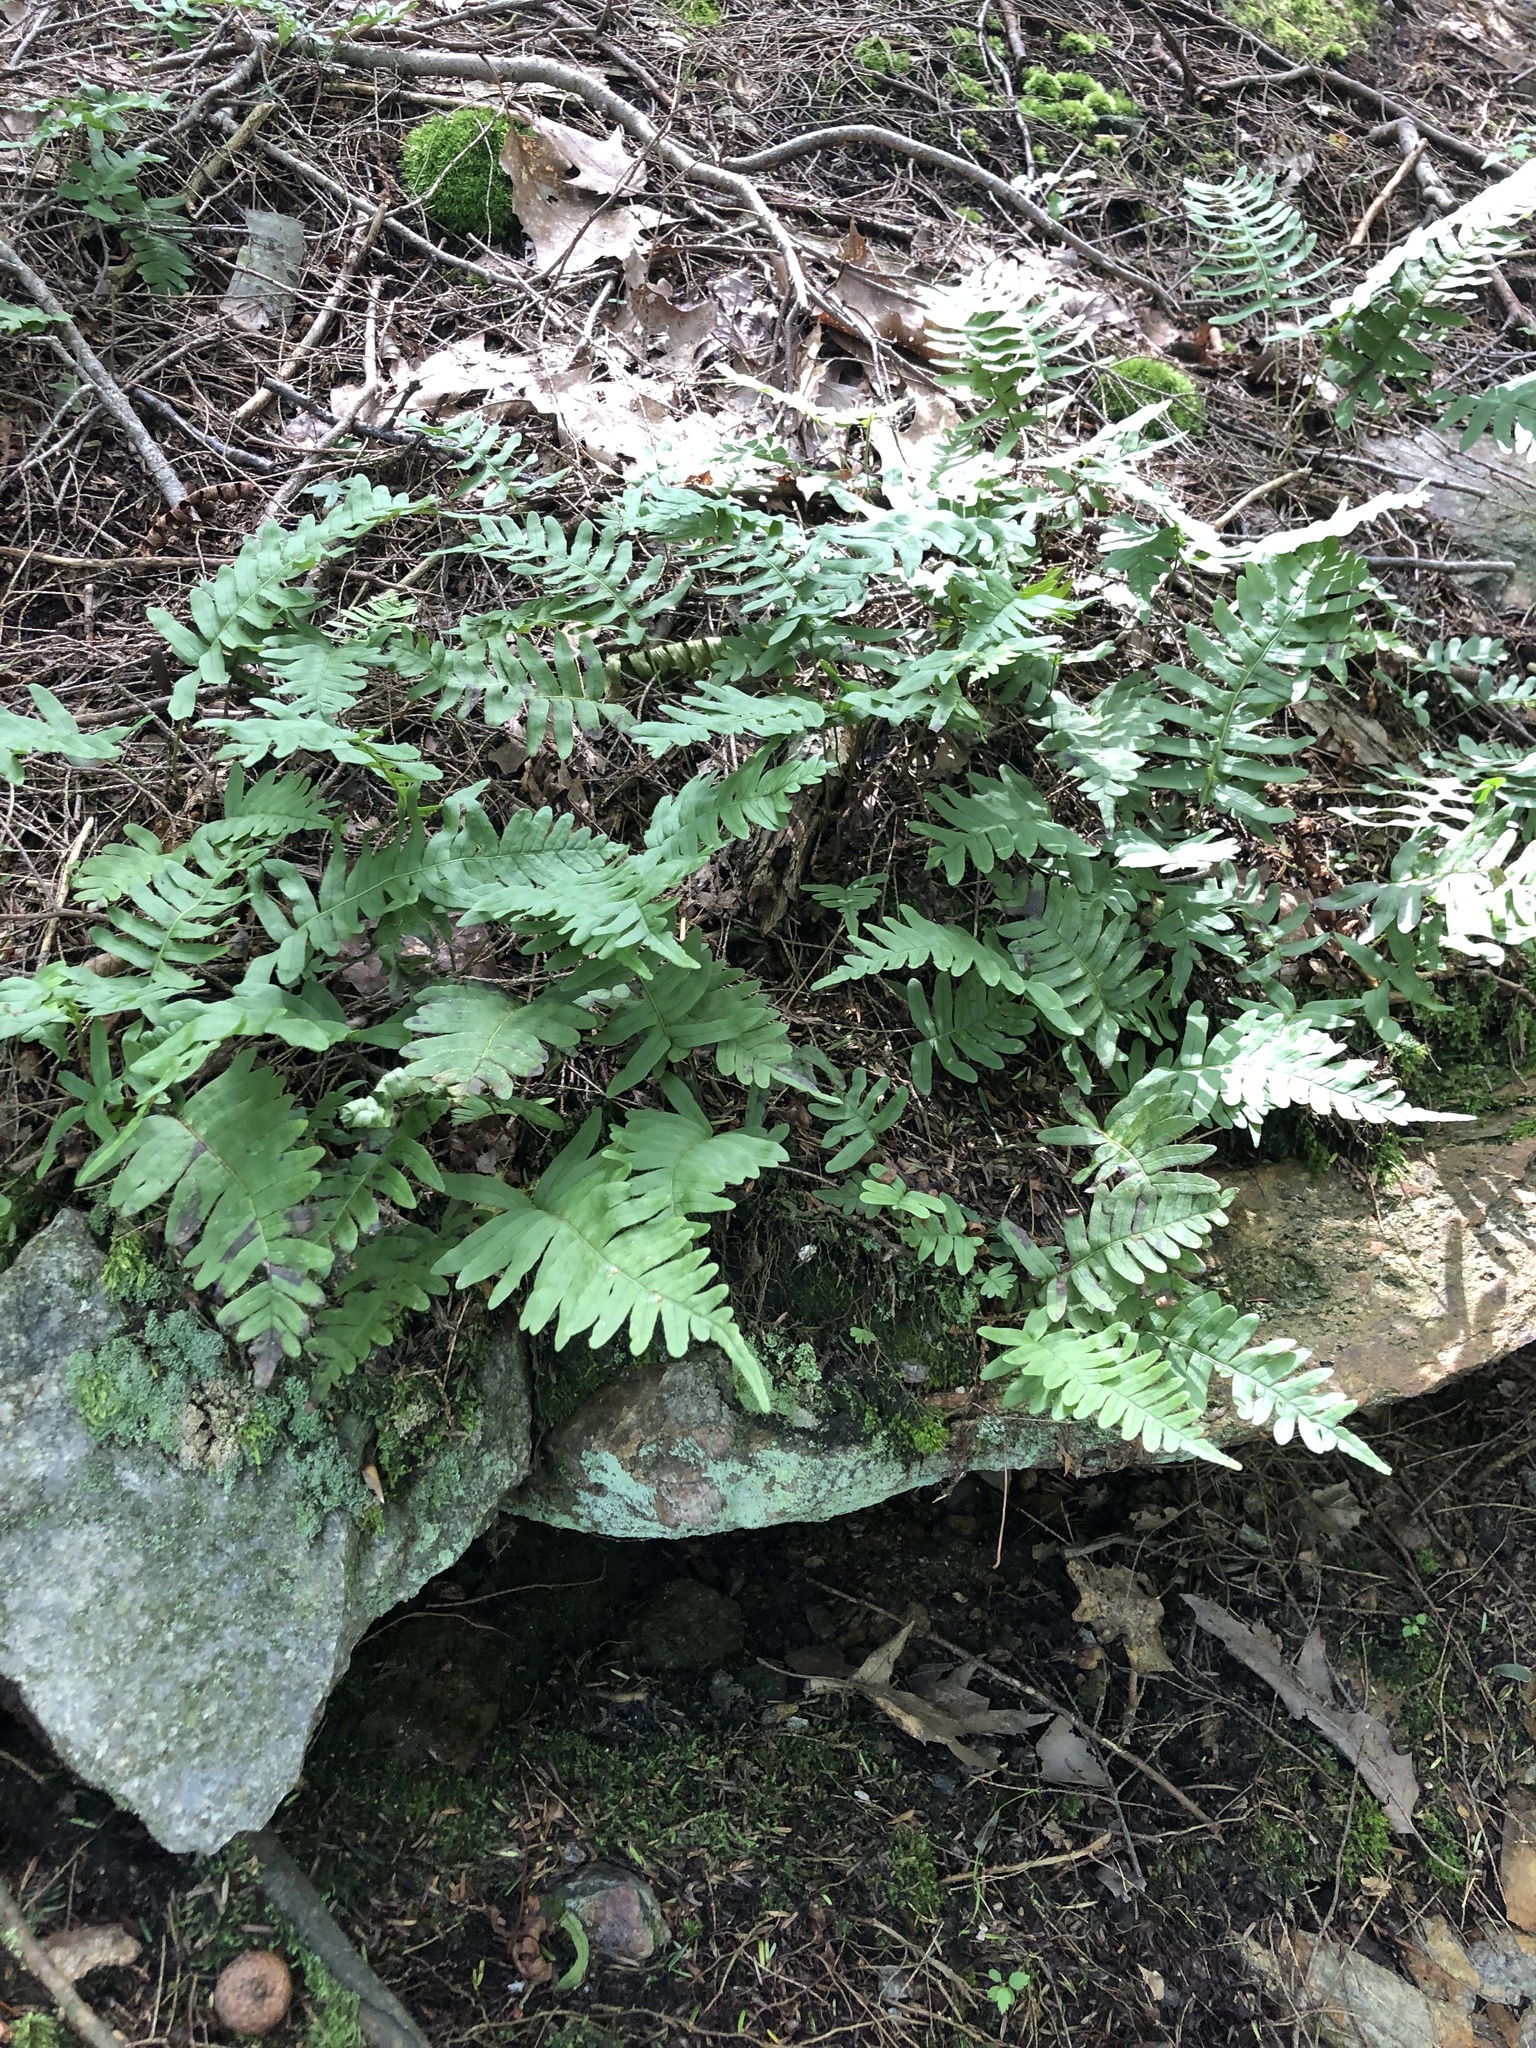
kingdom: Plantae
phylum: Tracheophyta
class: Polypodiopsida
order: Polypodiales
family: Polypodiaceae
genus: Polypodium
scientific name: Polypodium virginianum
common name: American wall fern
